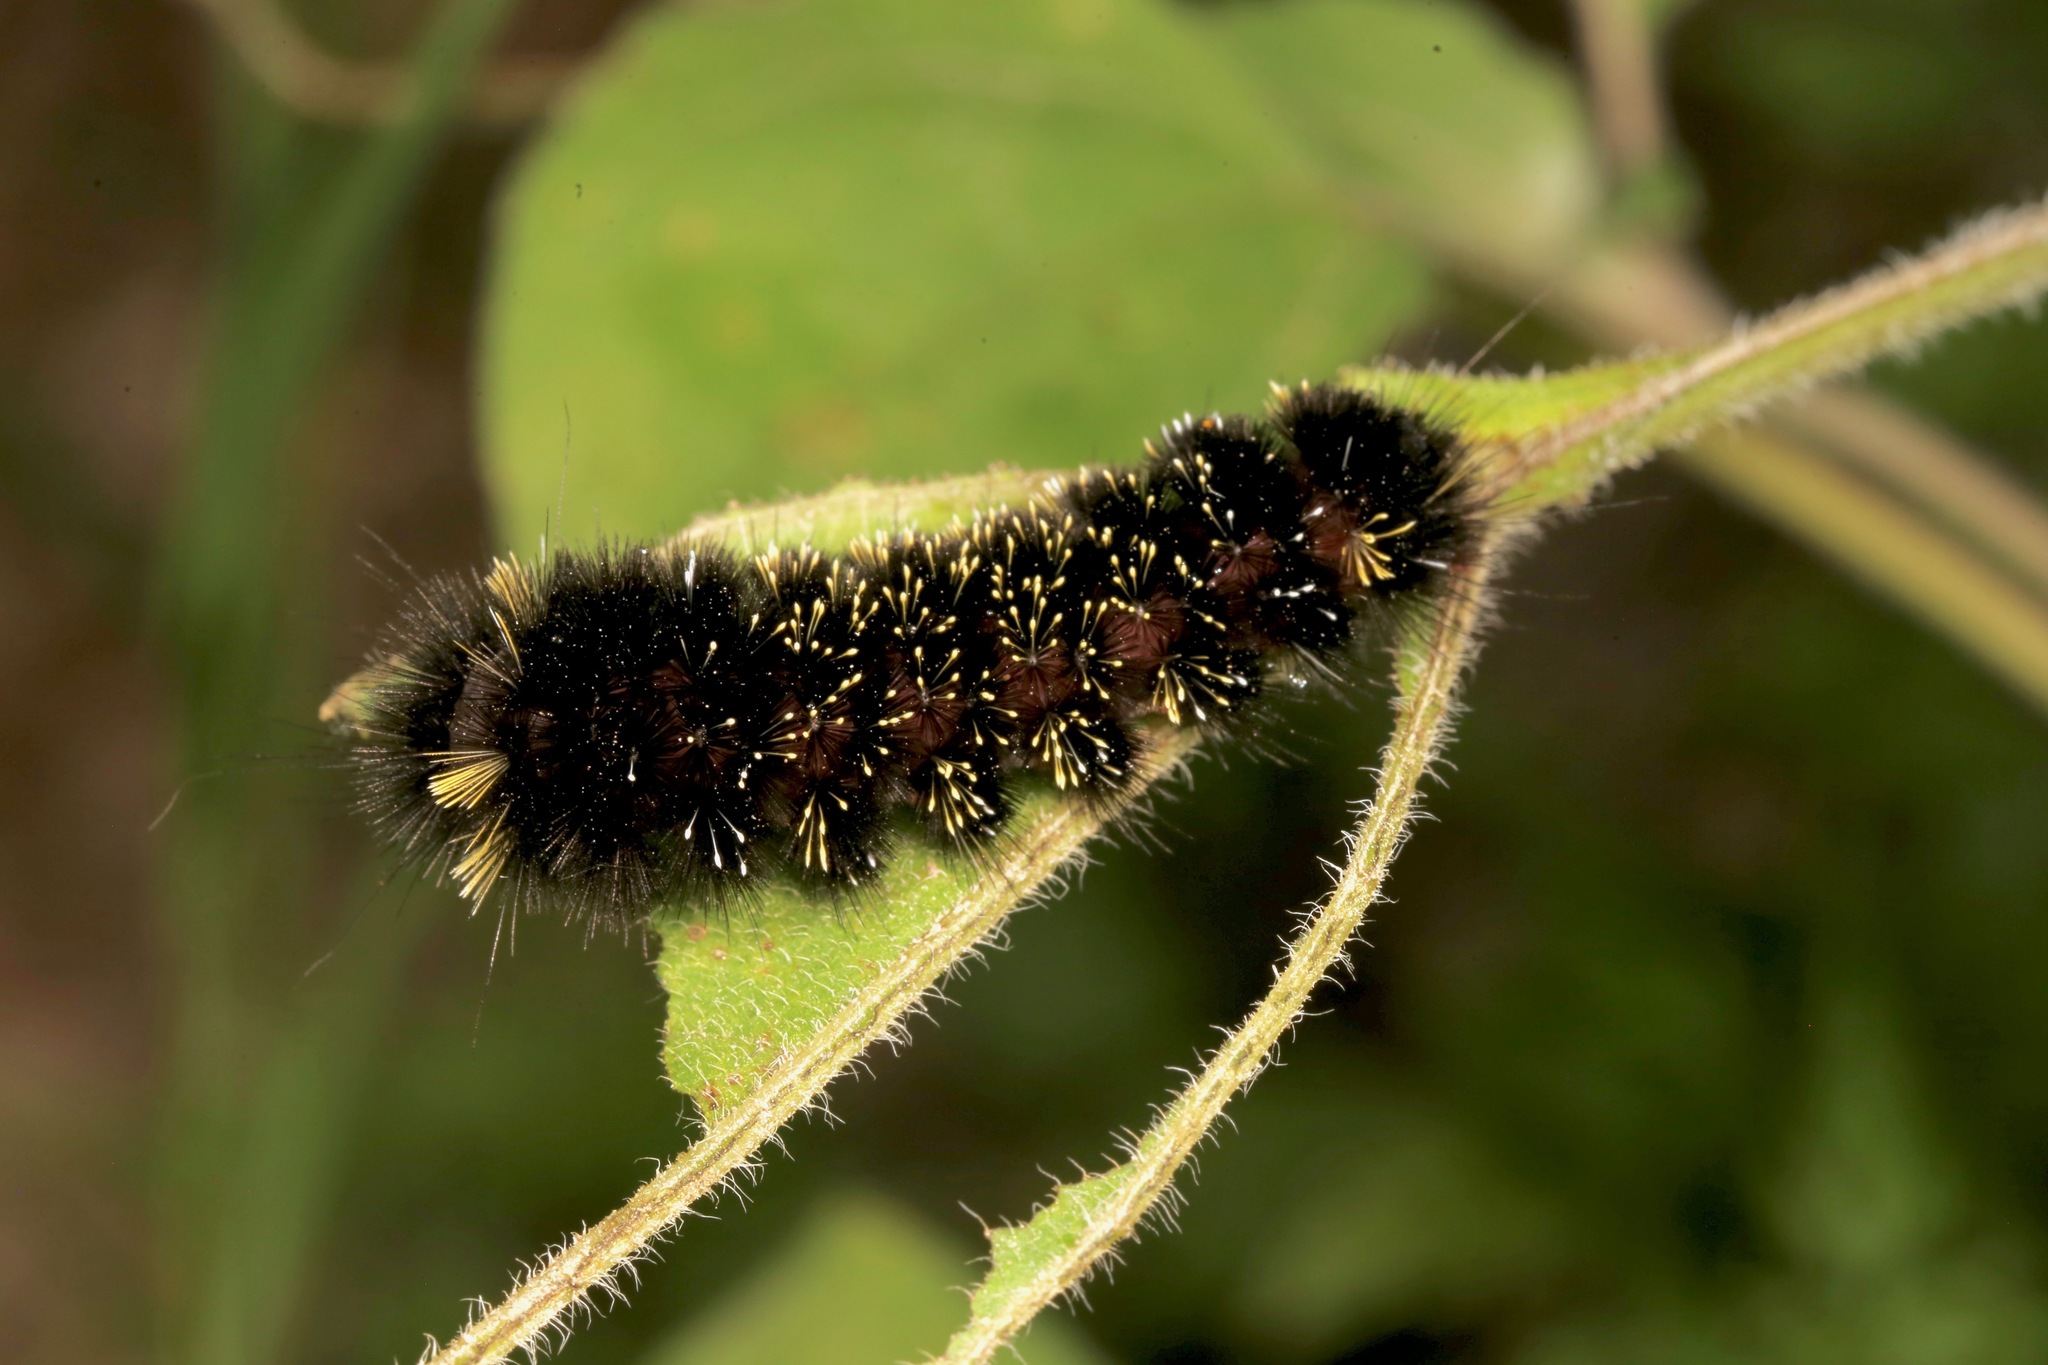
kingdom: Animalia
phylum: Arthropoda
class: Insecta
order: Lepidoptera
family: Erebidae
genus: Hypocrisias
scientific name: Hypocrisias minima
